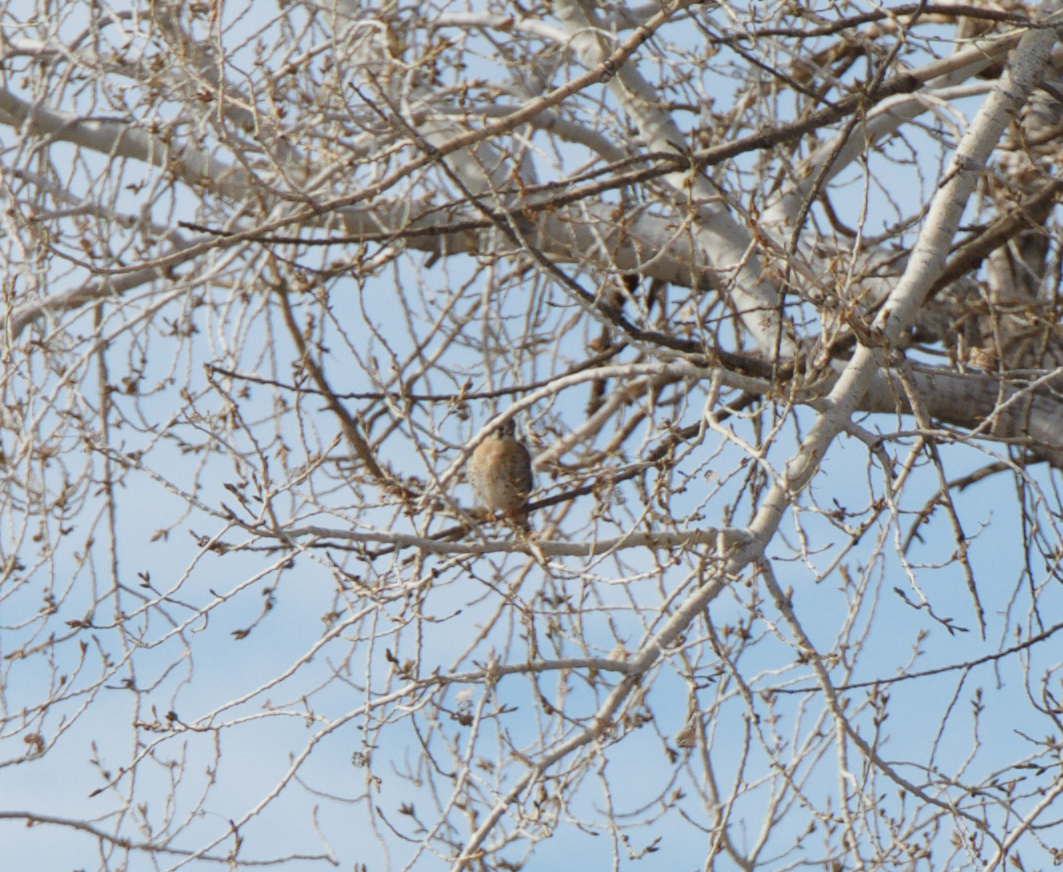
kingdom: Animalia
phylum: Chordata
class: Aves
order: Falconiformes
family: Falconidae
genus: Falco
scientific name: Falco sparverius
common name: American kestrel
